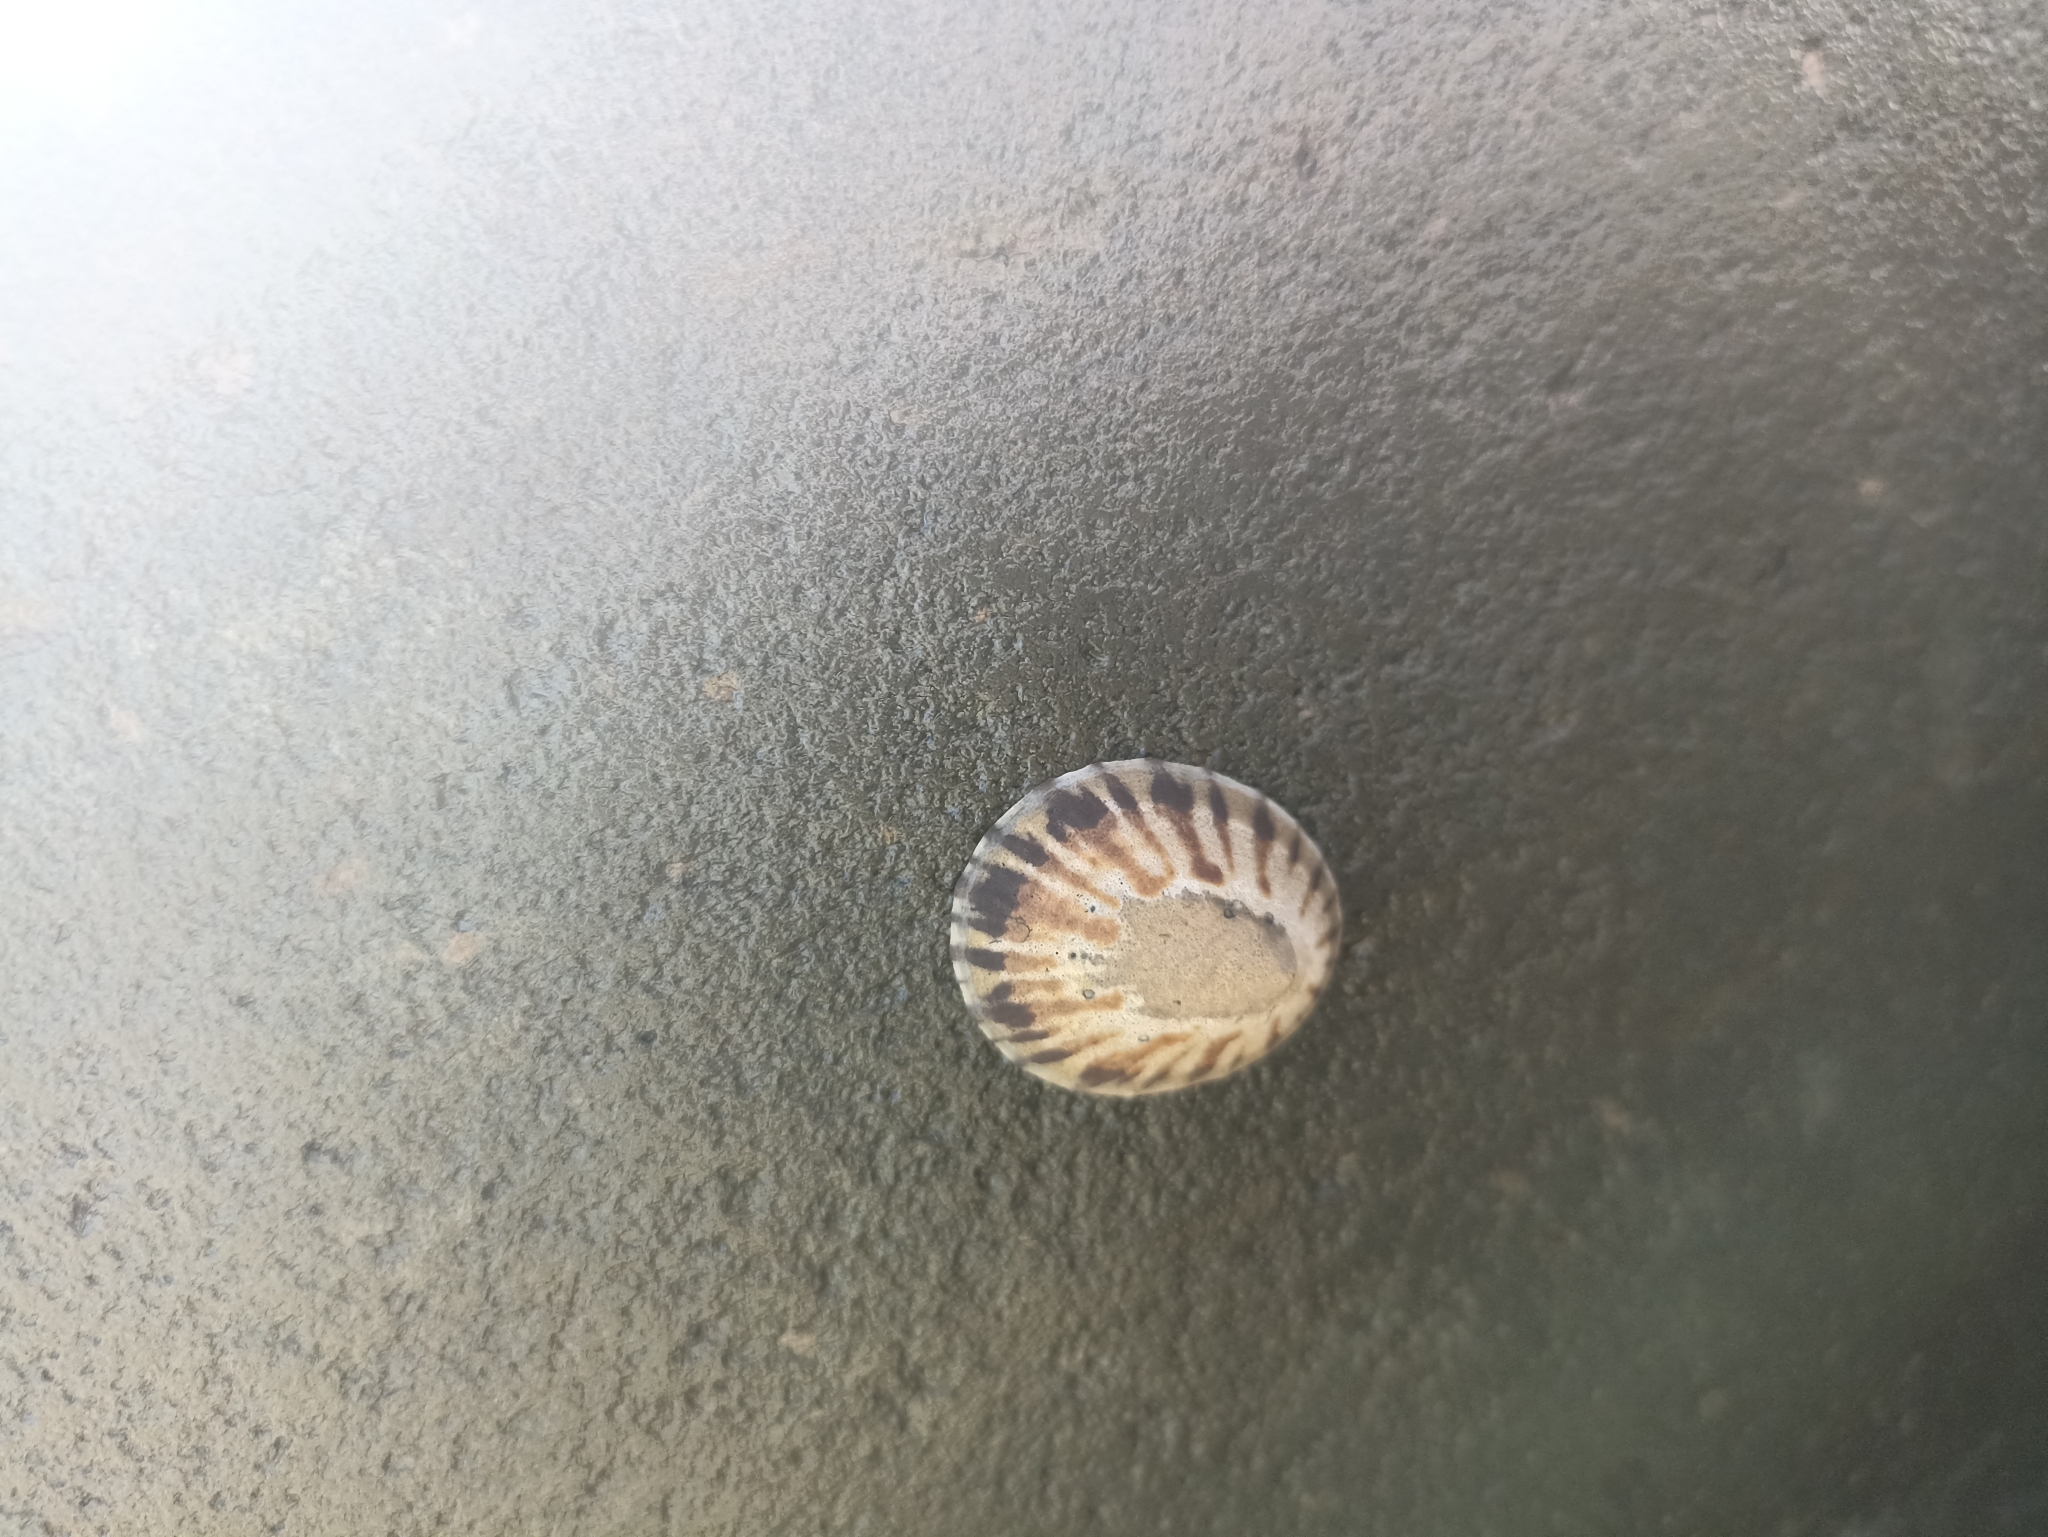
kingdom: Animalia
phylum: Mollusca
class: Gastropoda
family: Nacellidae
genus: Cellana
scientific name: Cellana radians
